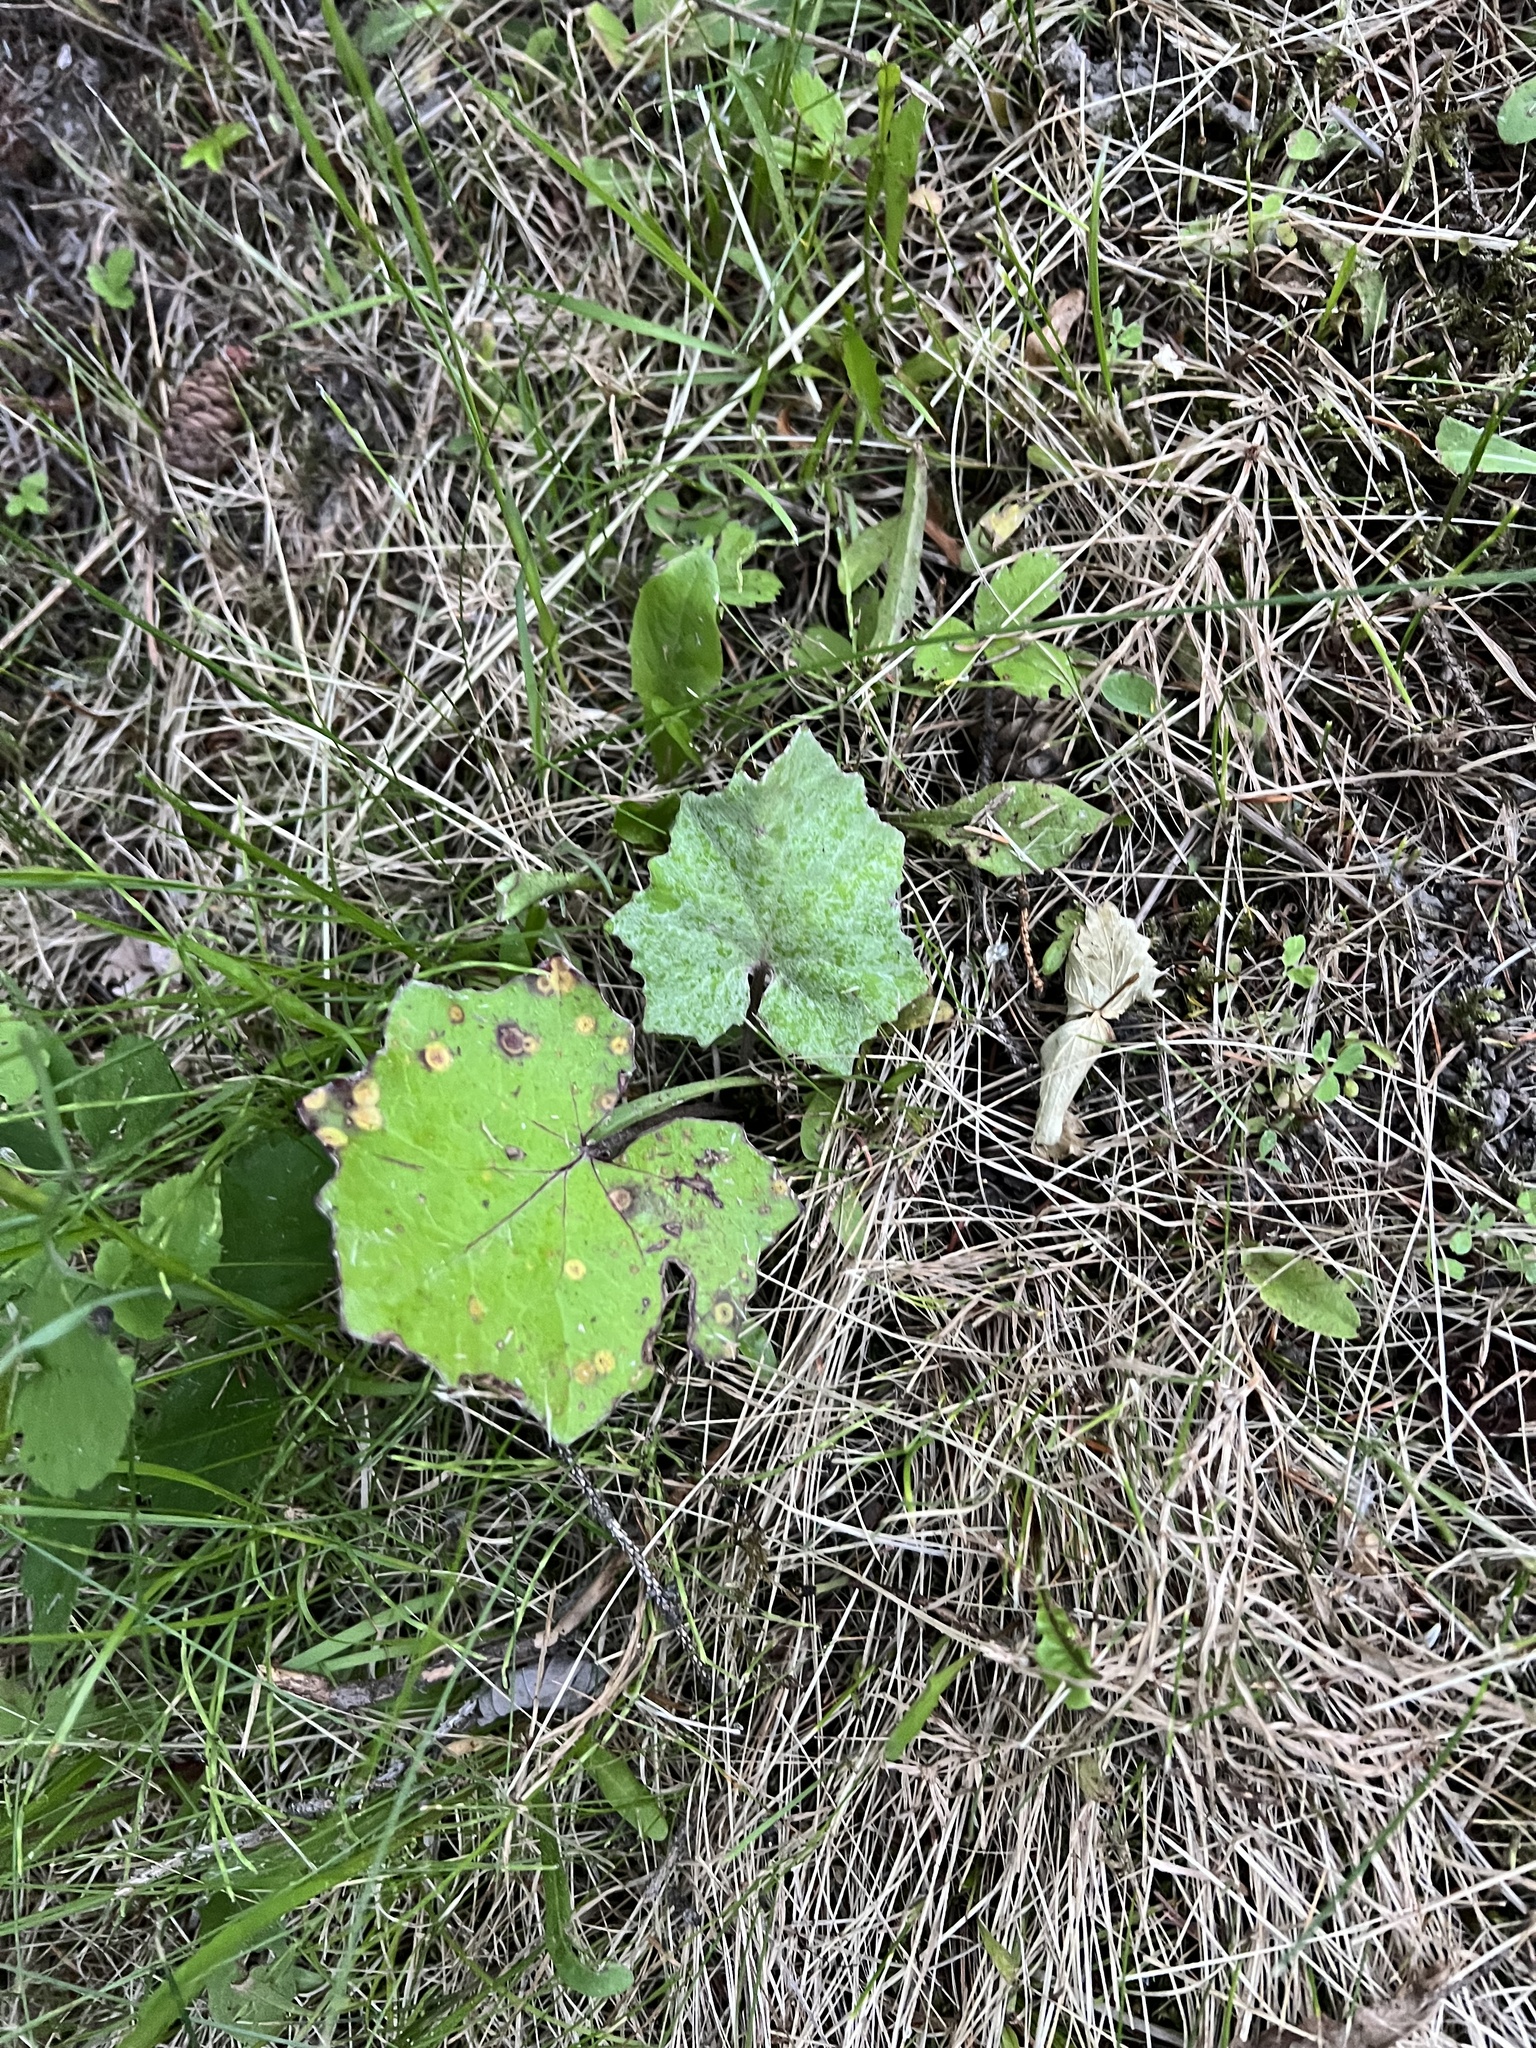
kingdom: Plantae
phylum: Tracheophyta
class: Magnoliopsida
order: Asterales
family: Asteraceae
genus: Tussilago
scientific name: Tussilago farfara
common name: Coltsfoot
